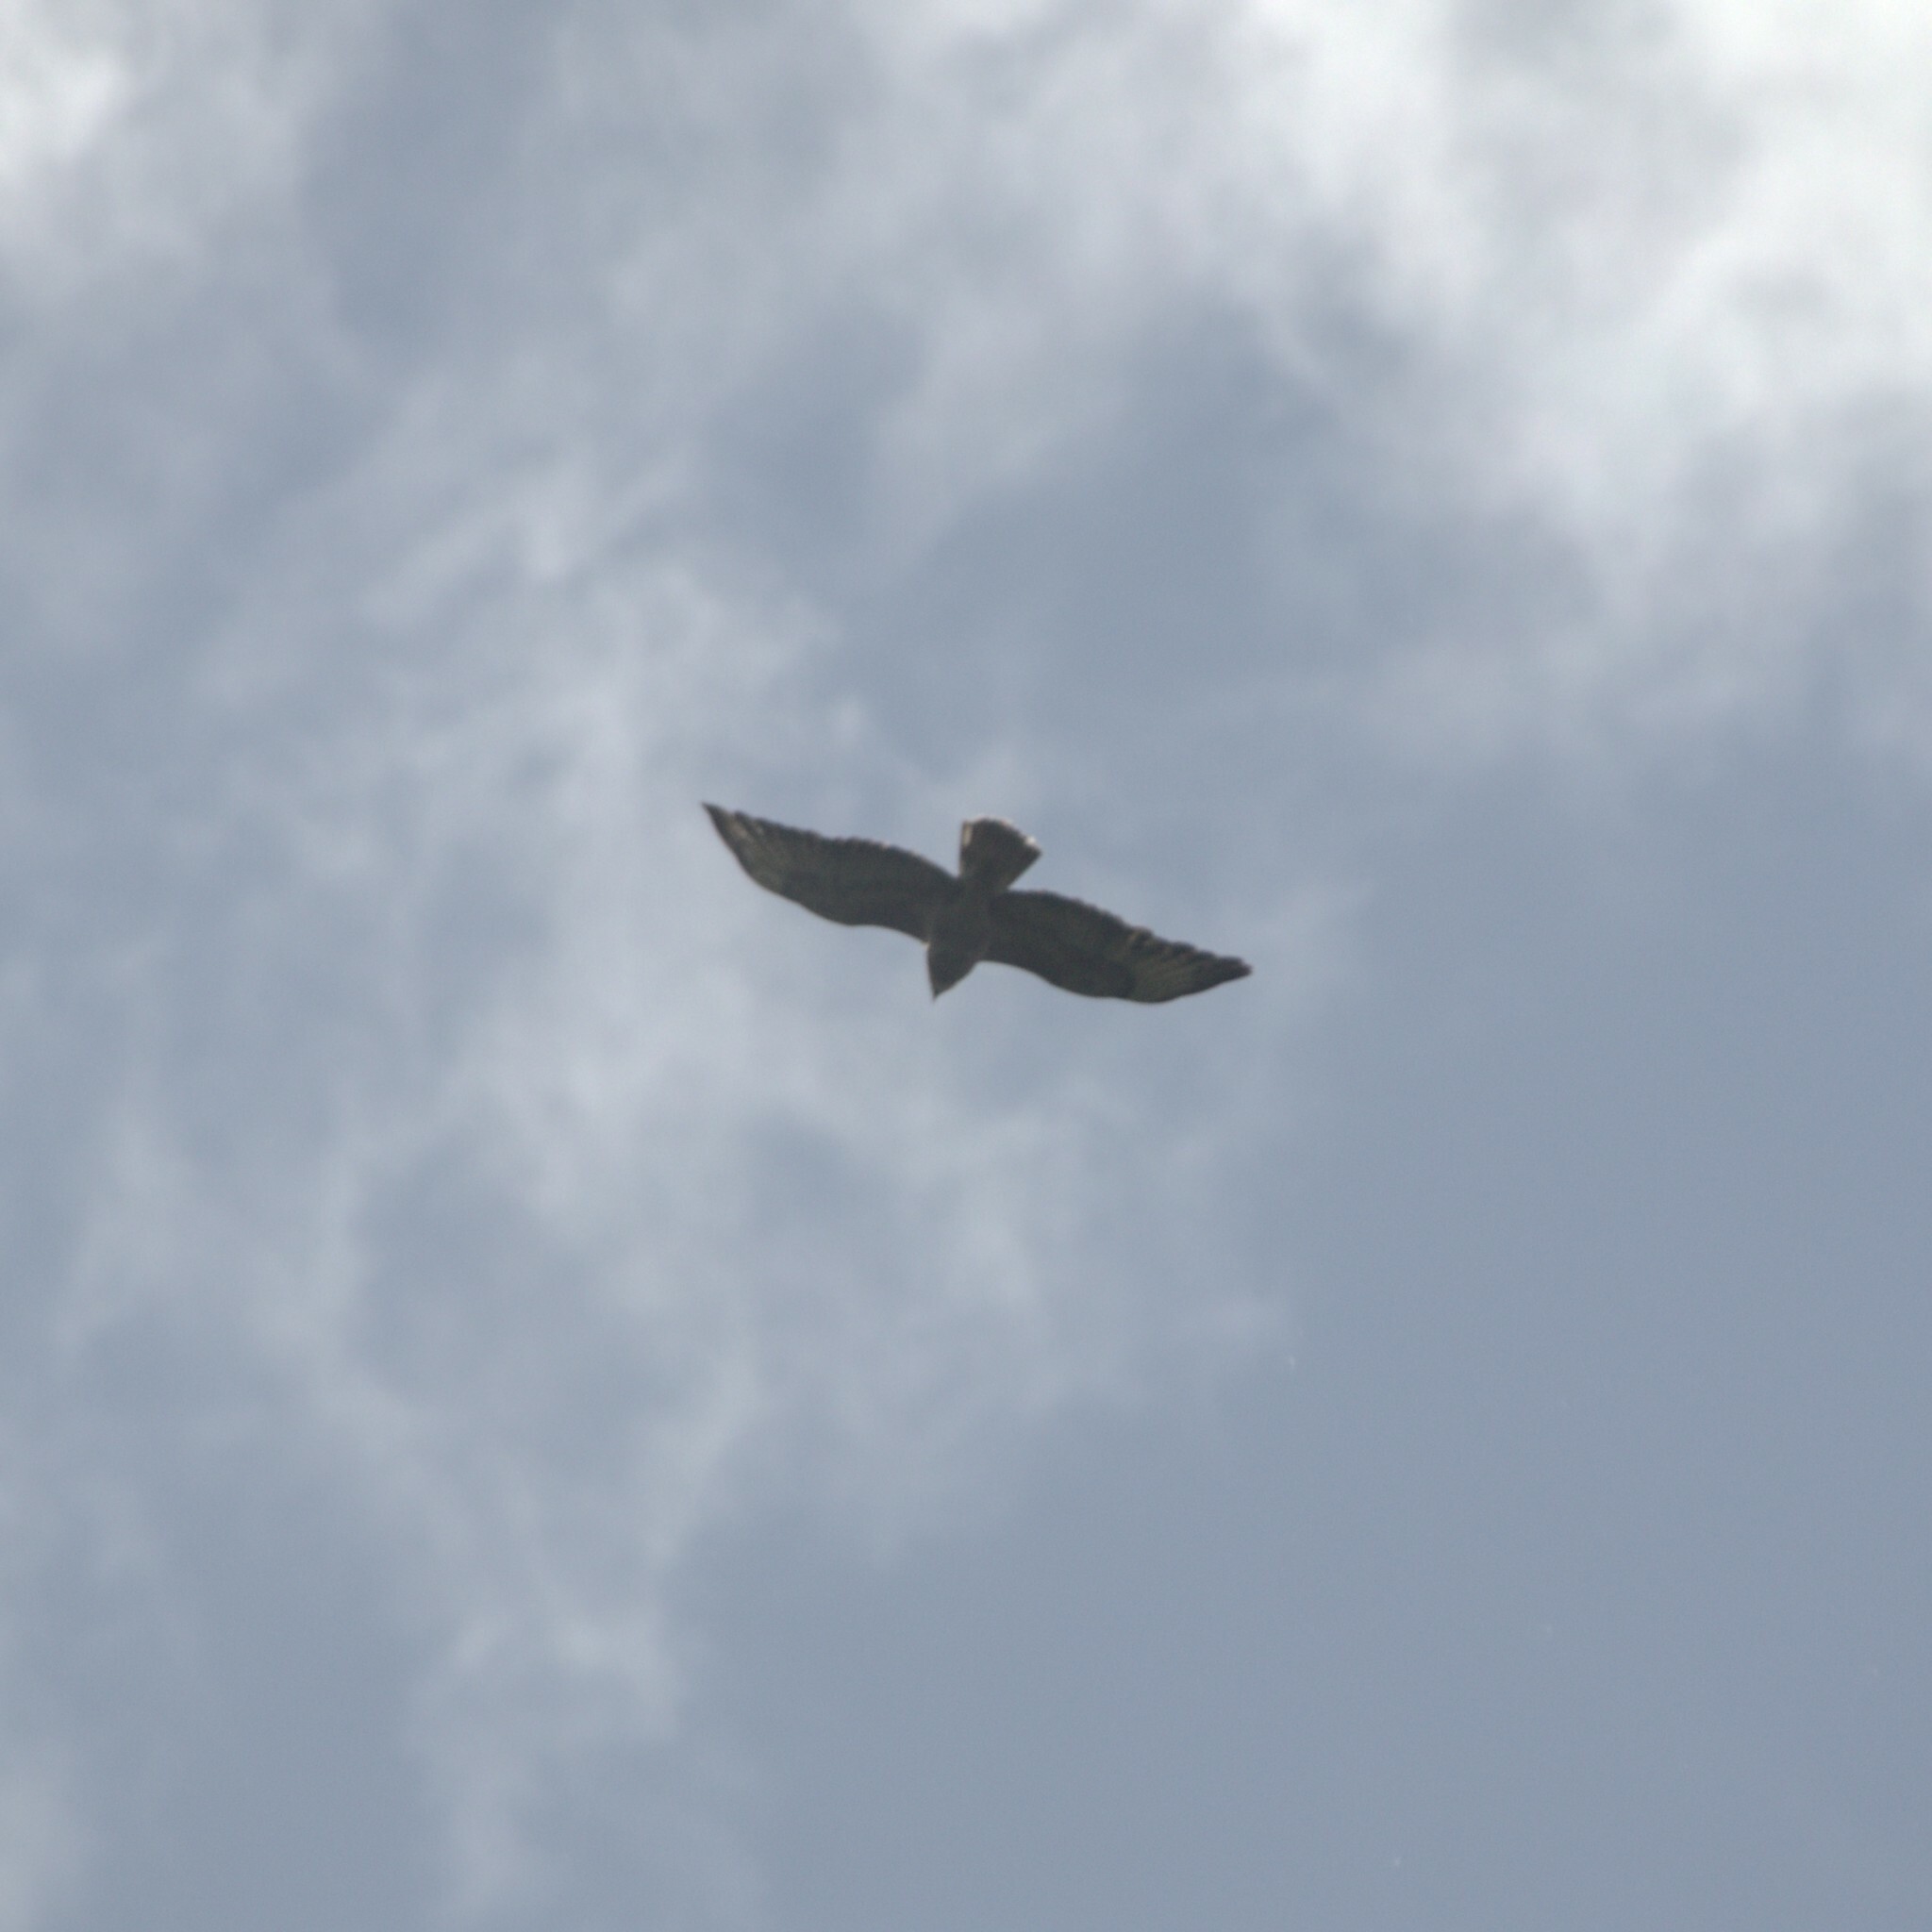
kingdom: Animalia
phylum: Chordata
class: Aves
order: Accipitriformes
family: Accipitridae
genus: Buteo
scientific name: Buteo buteo
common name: Common buzzard
